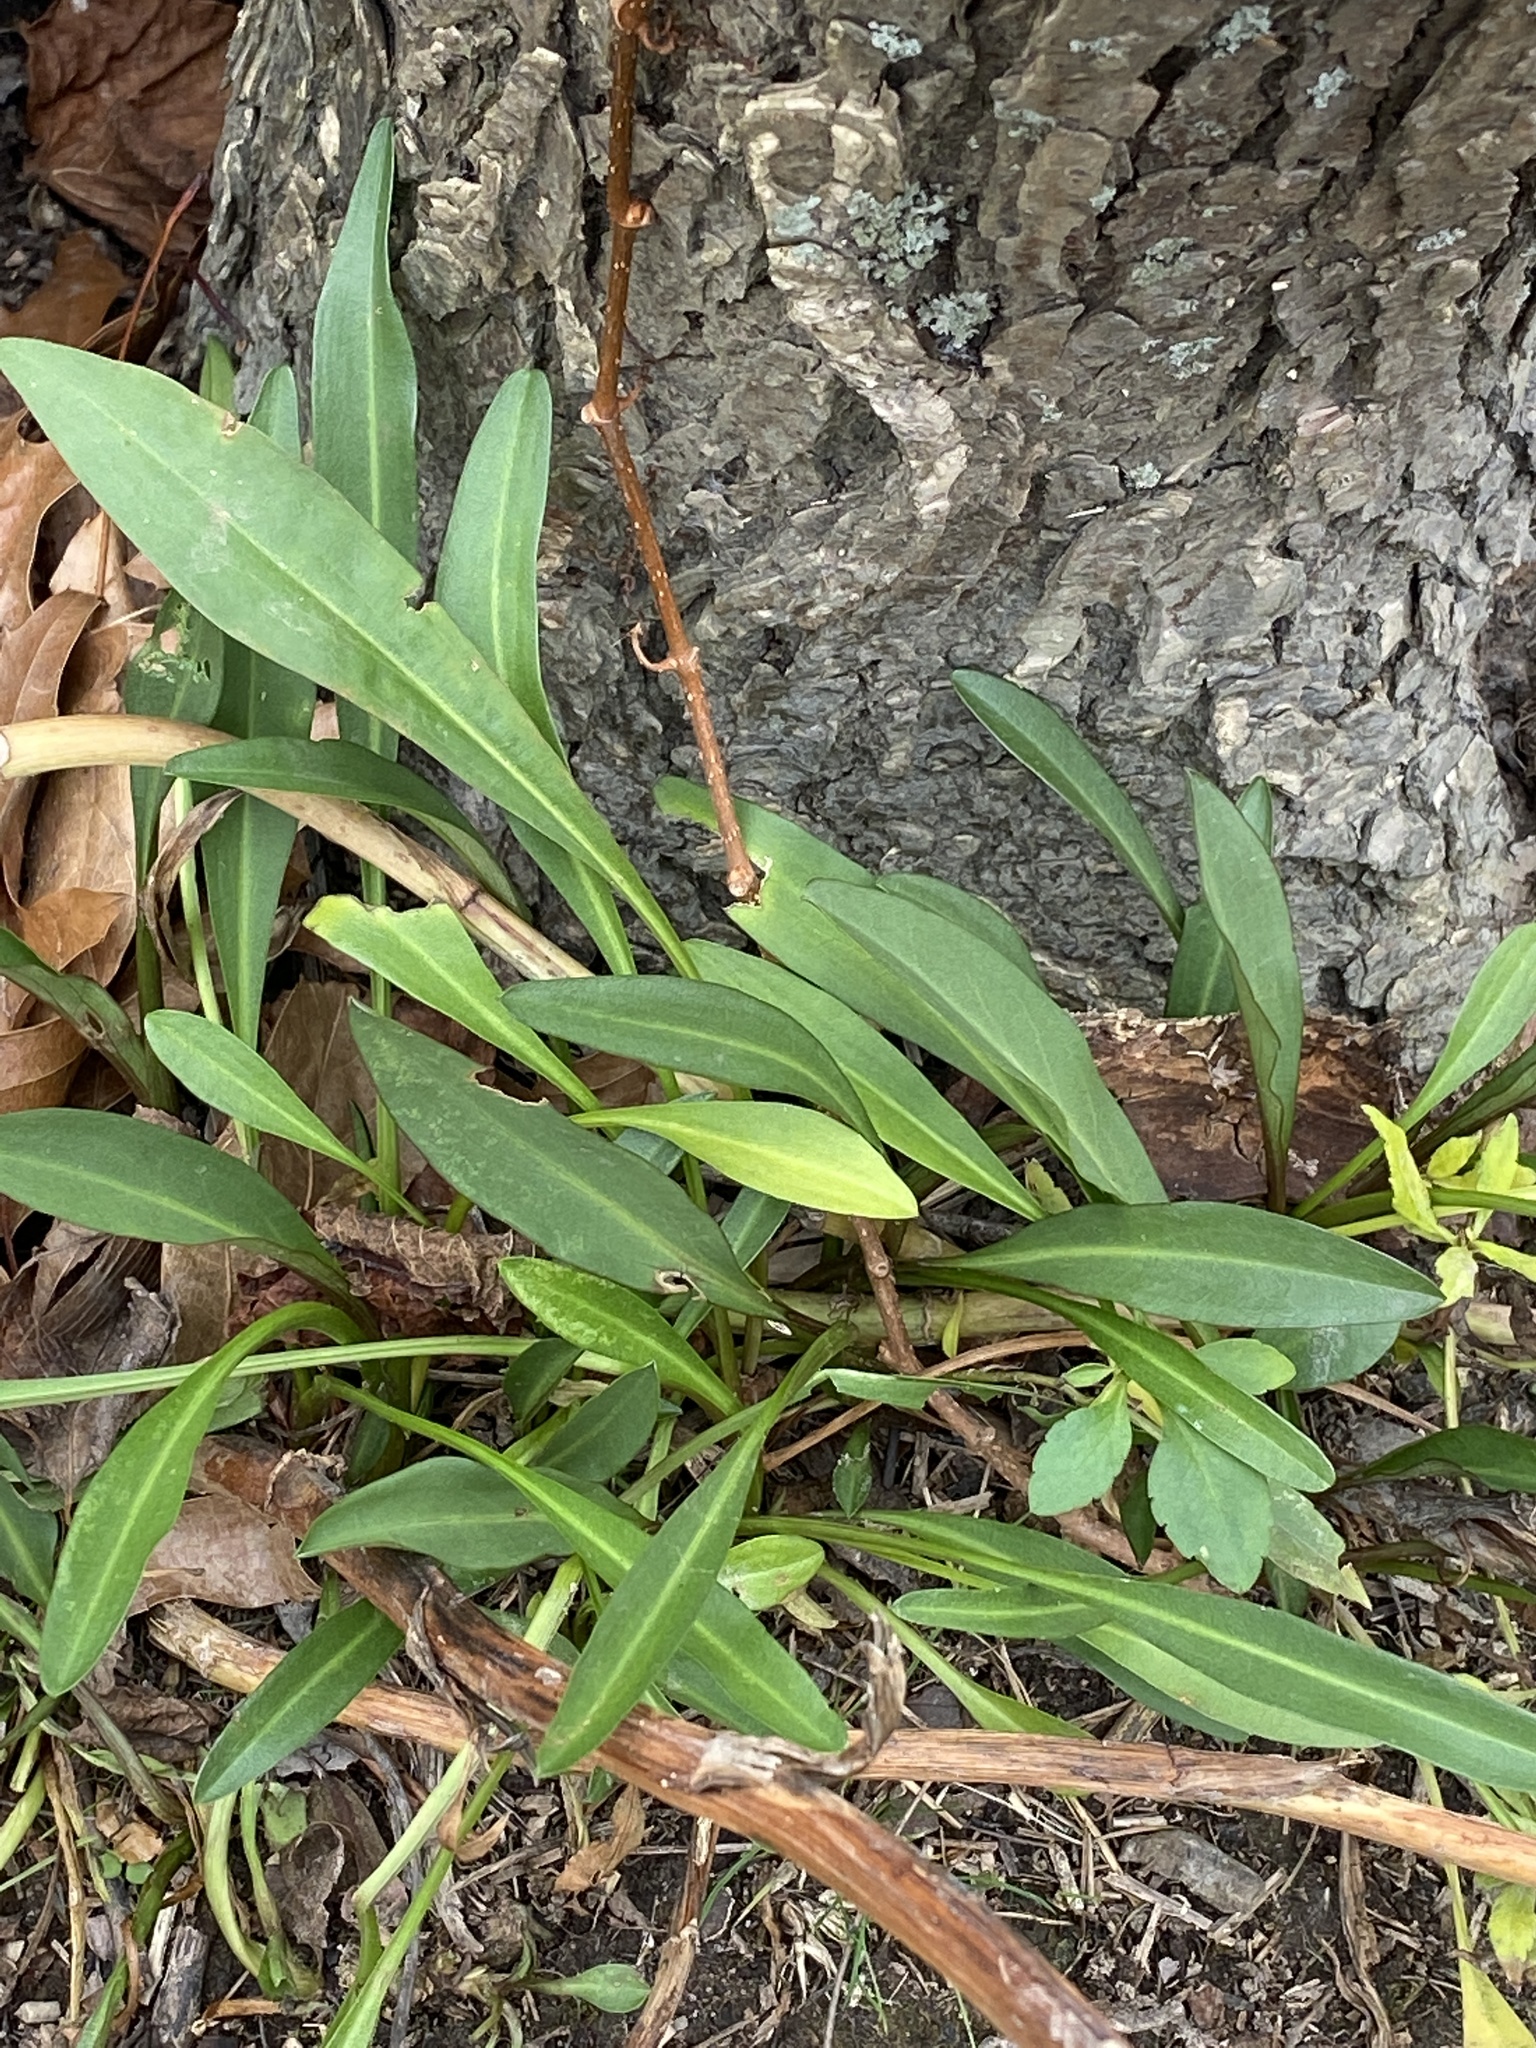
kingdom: Plantae
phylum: Tracheophyta
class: Magnoliopsida
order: Asterales
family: Asteraceae
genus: Solidago
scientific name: Solidago sempervirens
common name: Salt-marsh goldenrod
